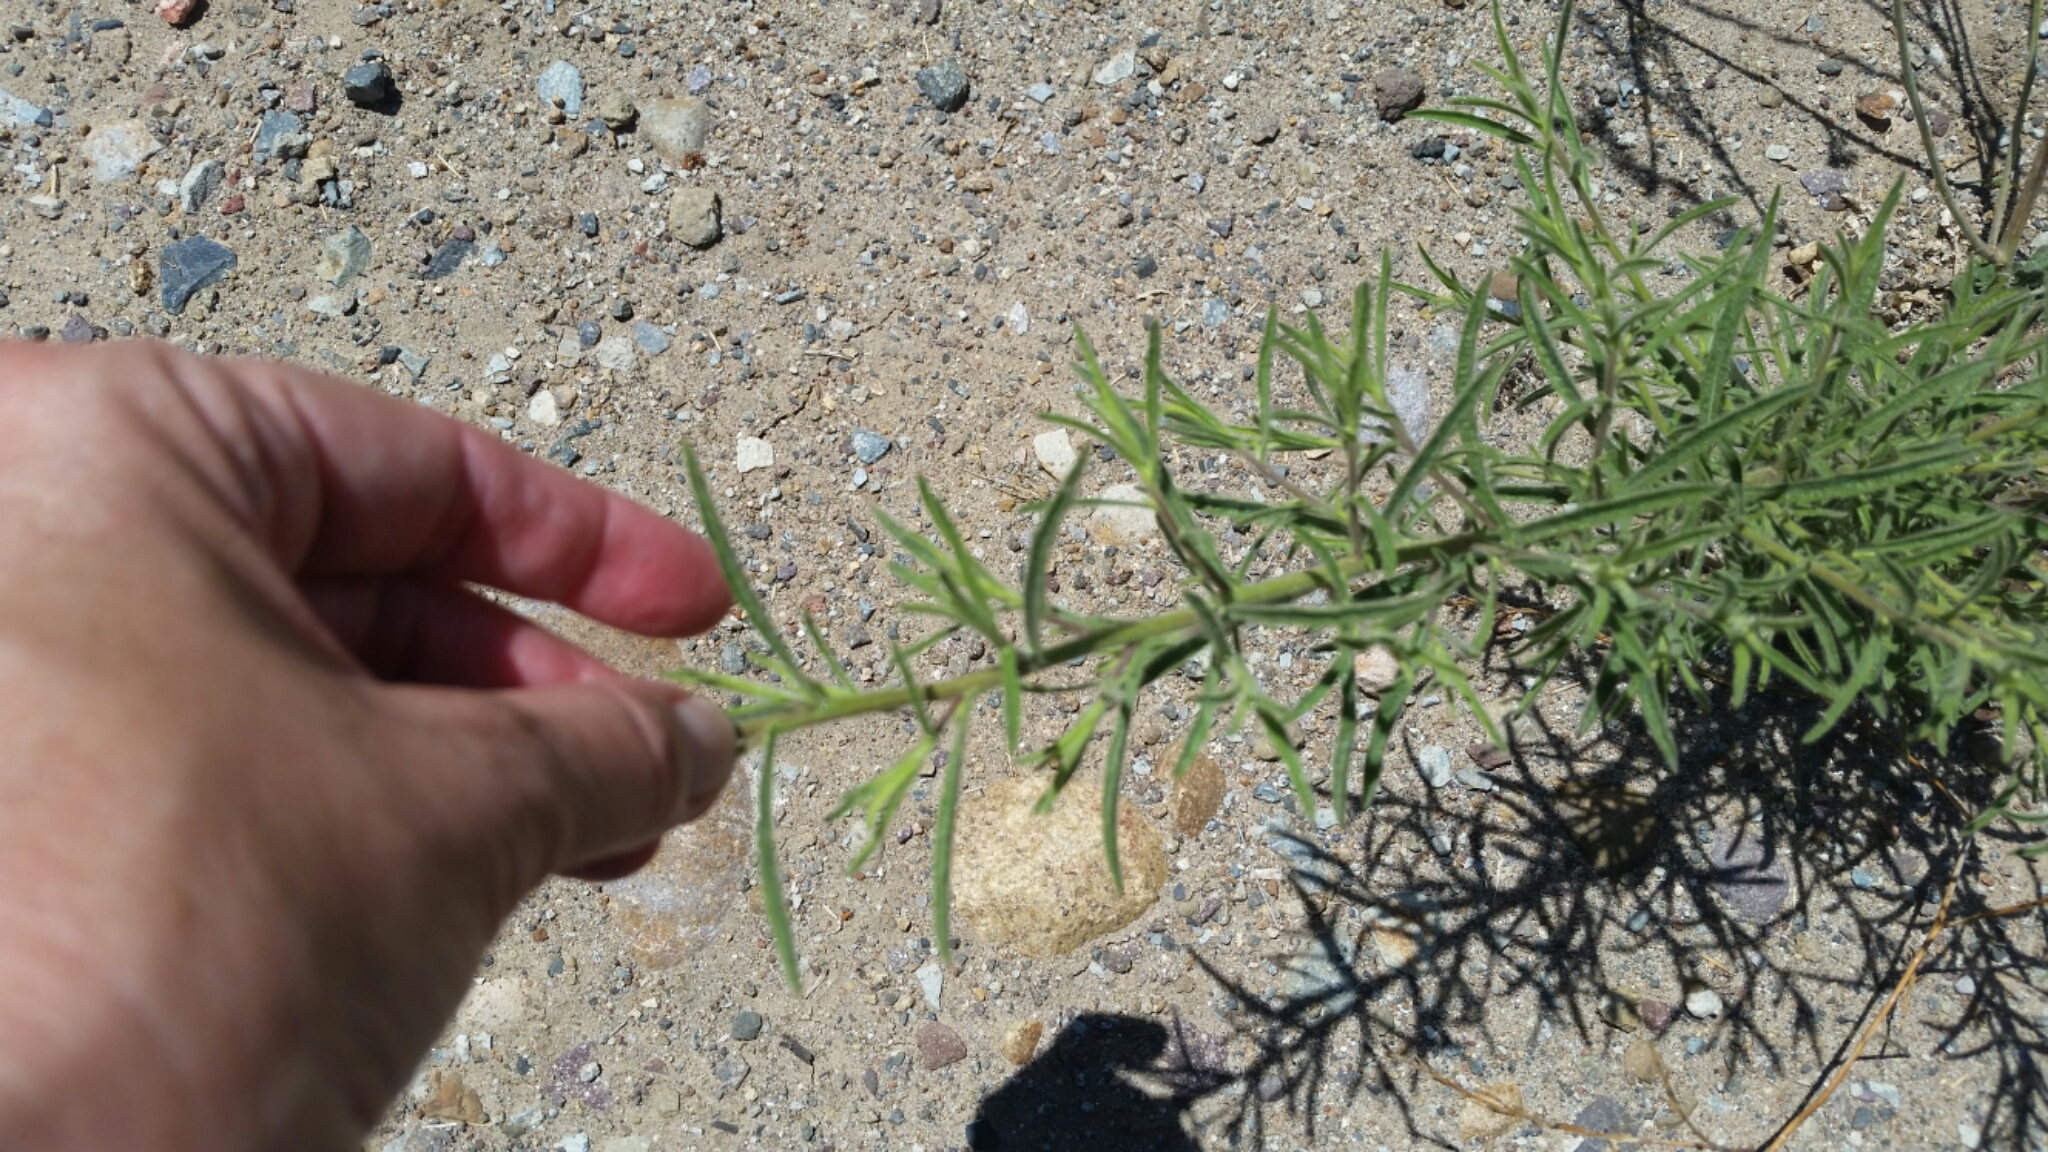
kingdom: Plantae
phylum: Tracheophyta
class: Magnoliopsida
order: Asterales
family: Asteraceae
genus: Dittrichia
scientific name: Dittrichia graveolens
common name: Stinking fleabane
